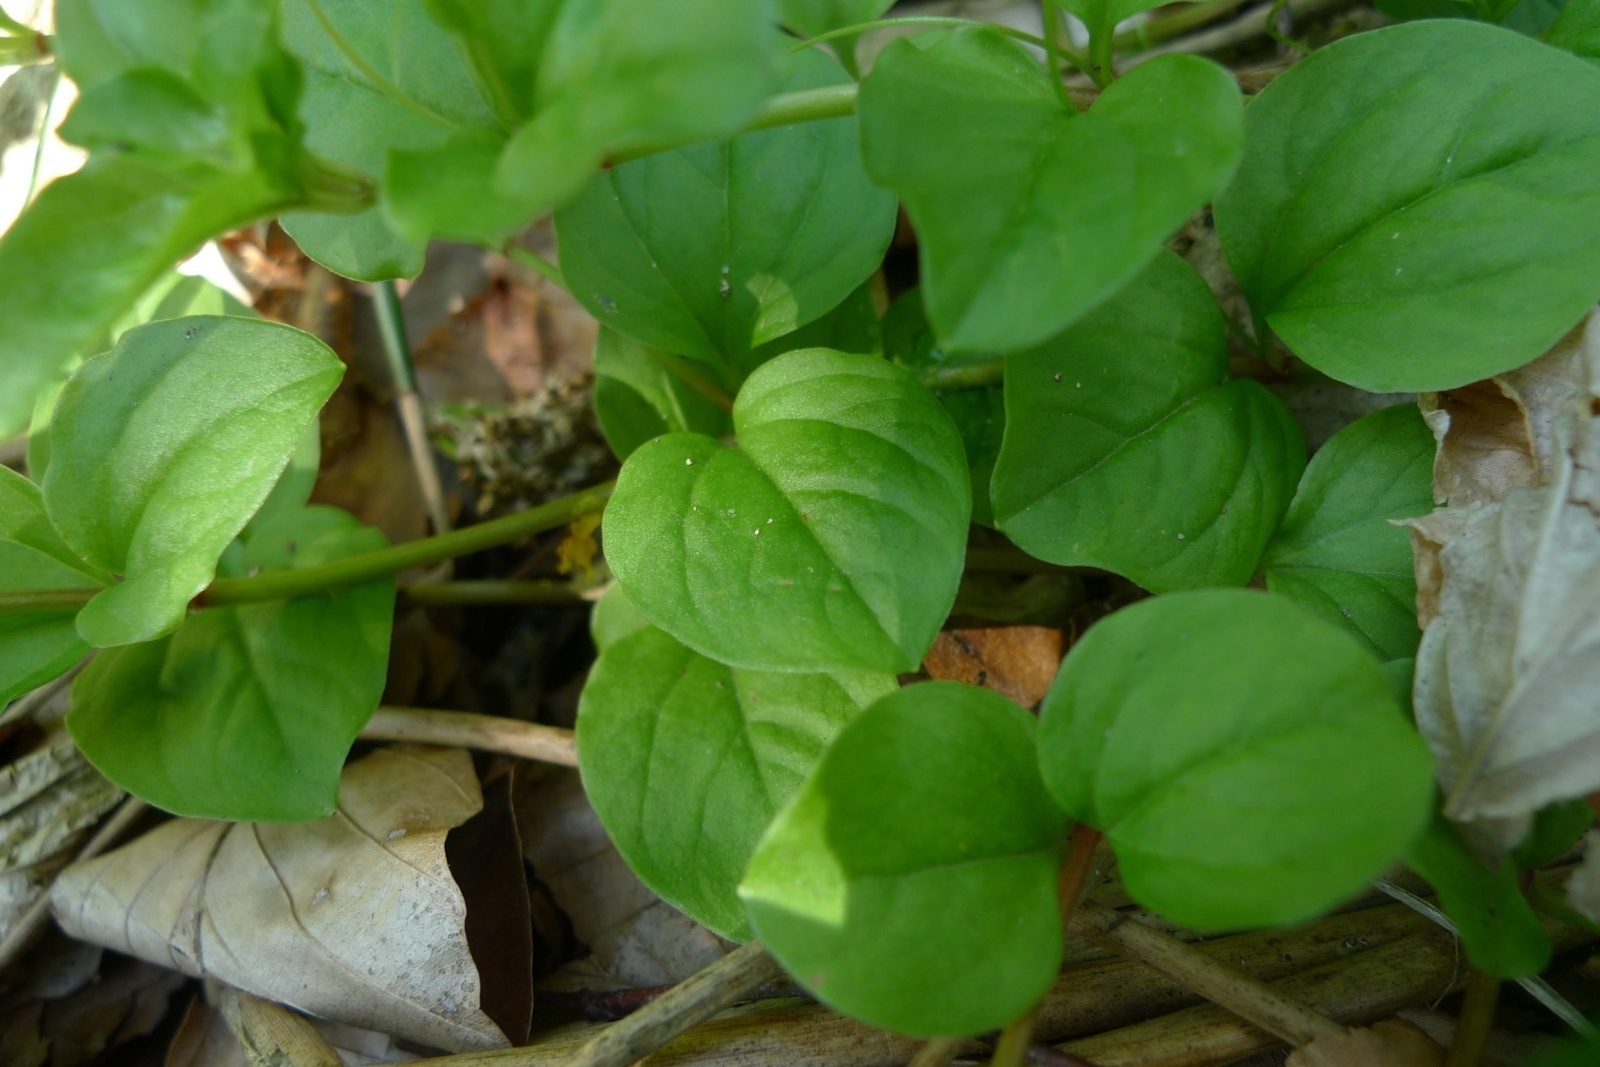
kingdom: Plantae
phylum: Tracheophyta
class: Magnoliopsida
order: Ericales
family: Primulaceae
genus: Lysimachia
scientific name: Lysimachia nummularia
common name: Moneywort
